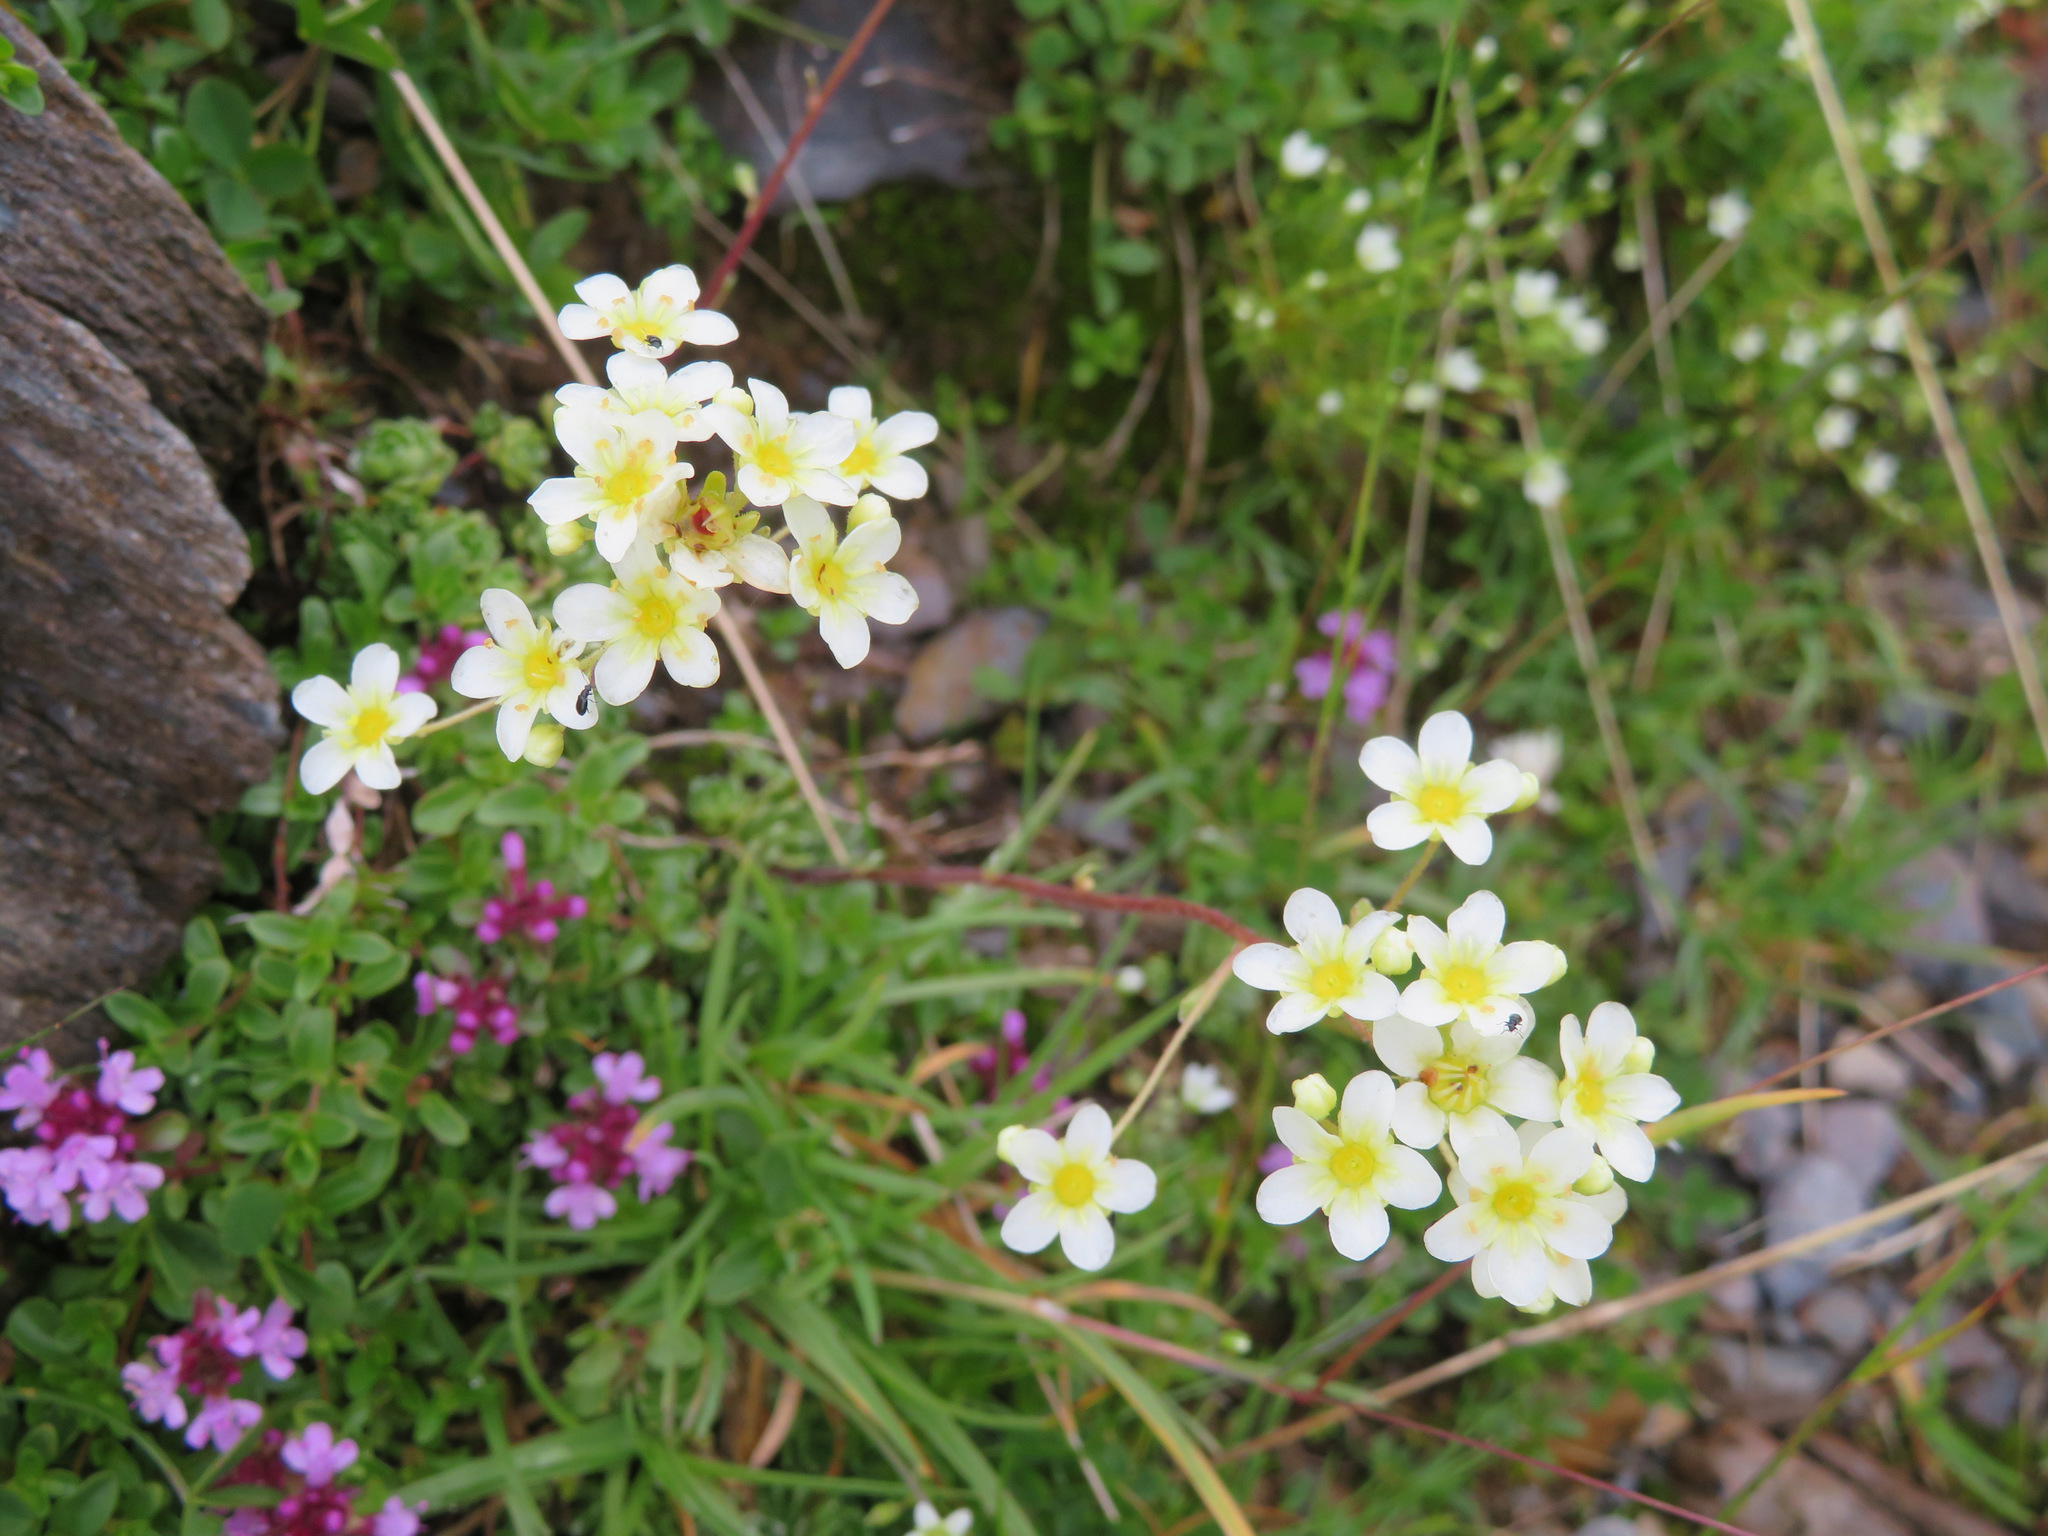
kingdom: Plantae
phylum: Tracheophyta
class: Magnoliopsida
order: Saxifragales
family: Saxifragaceae
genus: Saxifraga
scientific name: Saxifraga paniculata
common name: Livelong saxifrage
